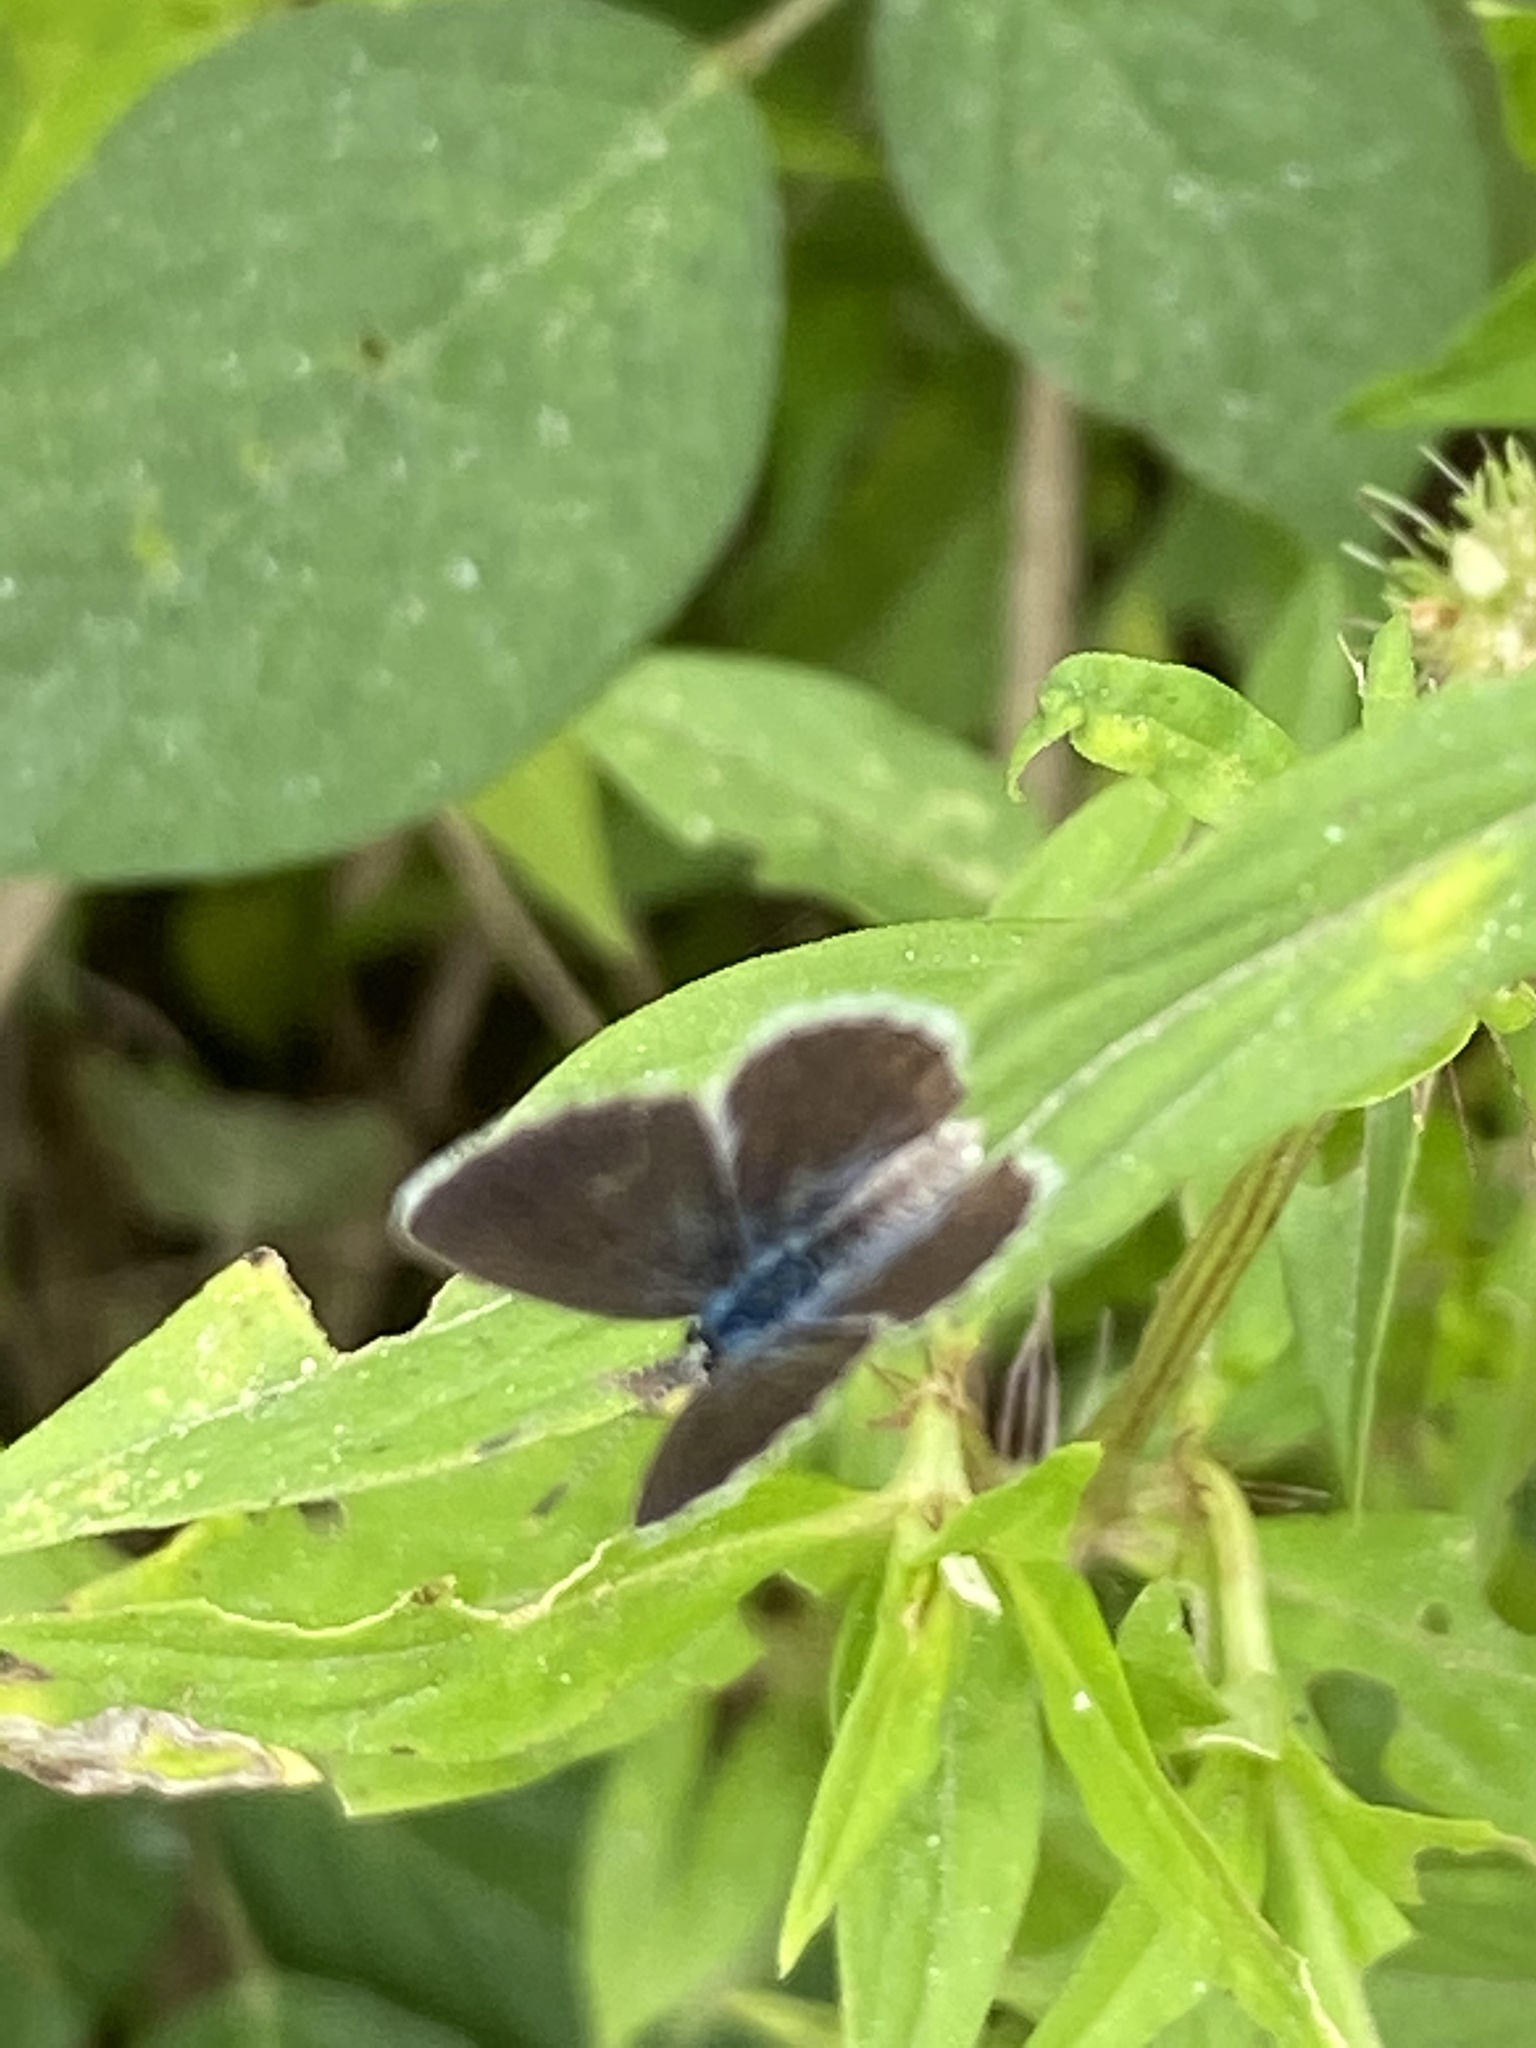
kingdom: Animalia
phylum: Arthropoda
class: Insecta
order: Lepidoptera
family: Lycaenidae
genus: Hemiargus
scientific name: Hemiargus hanno
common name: Common blue
